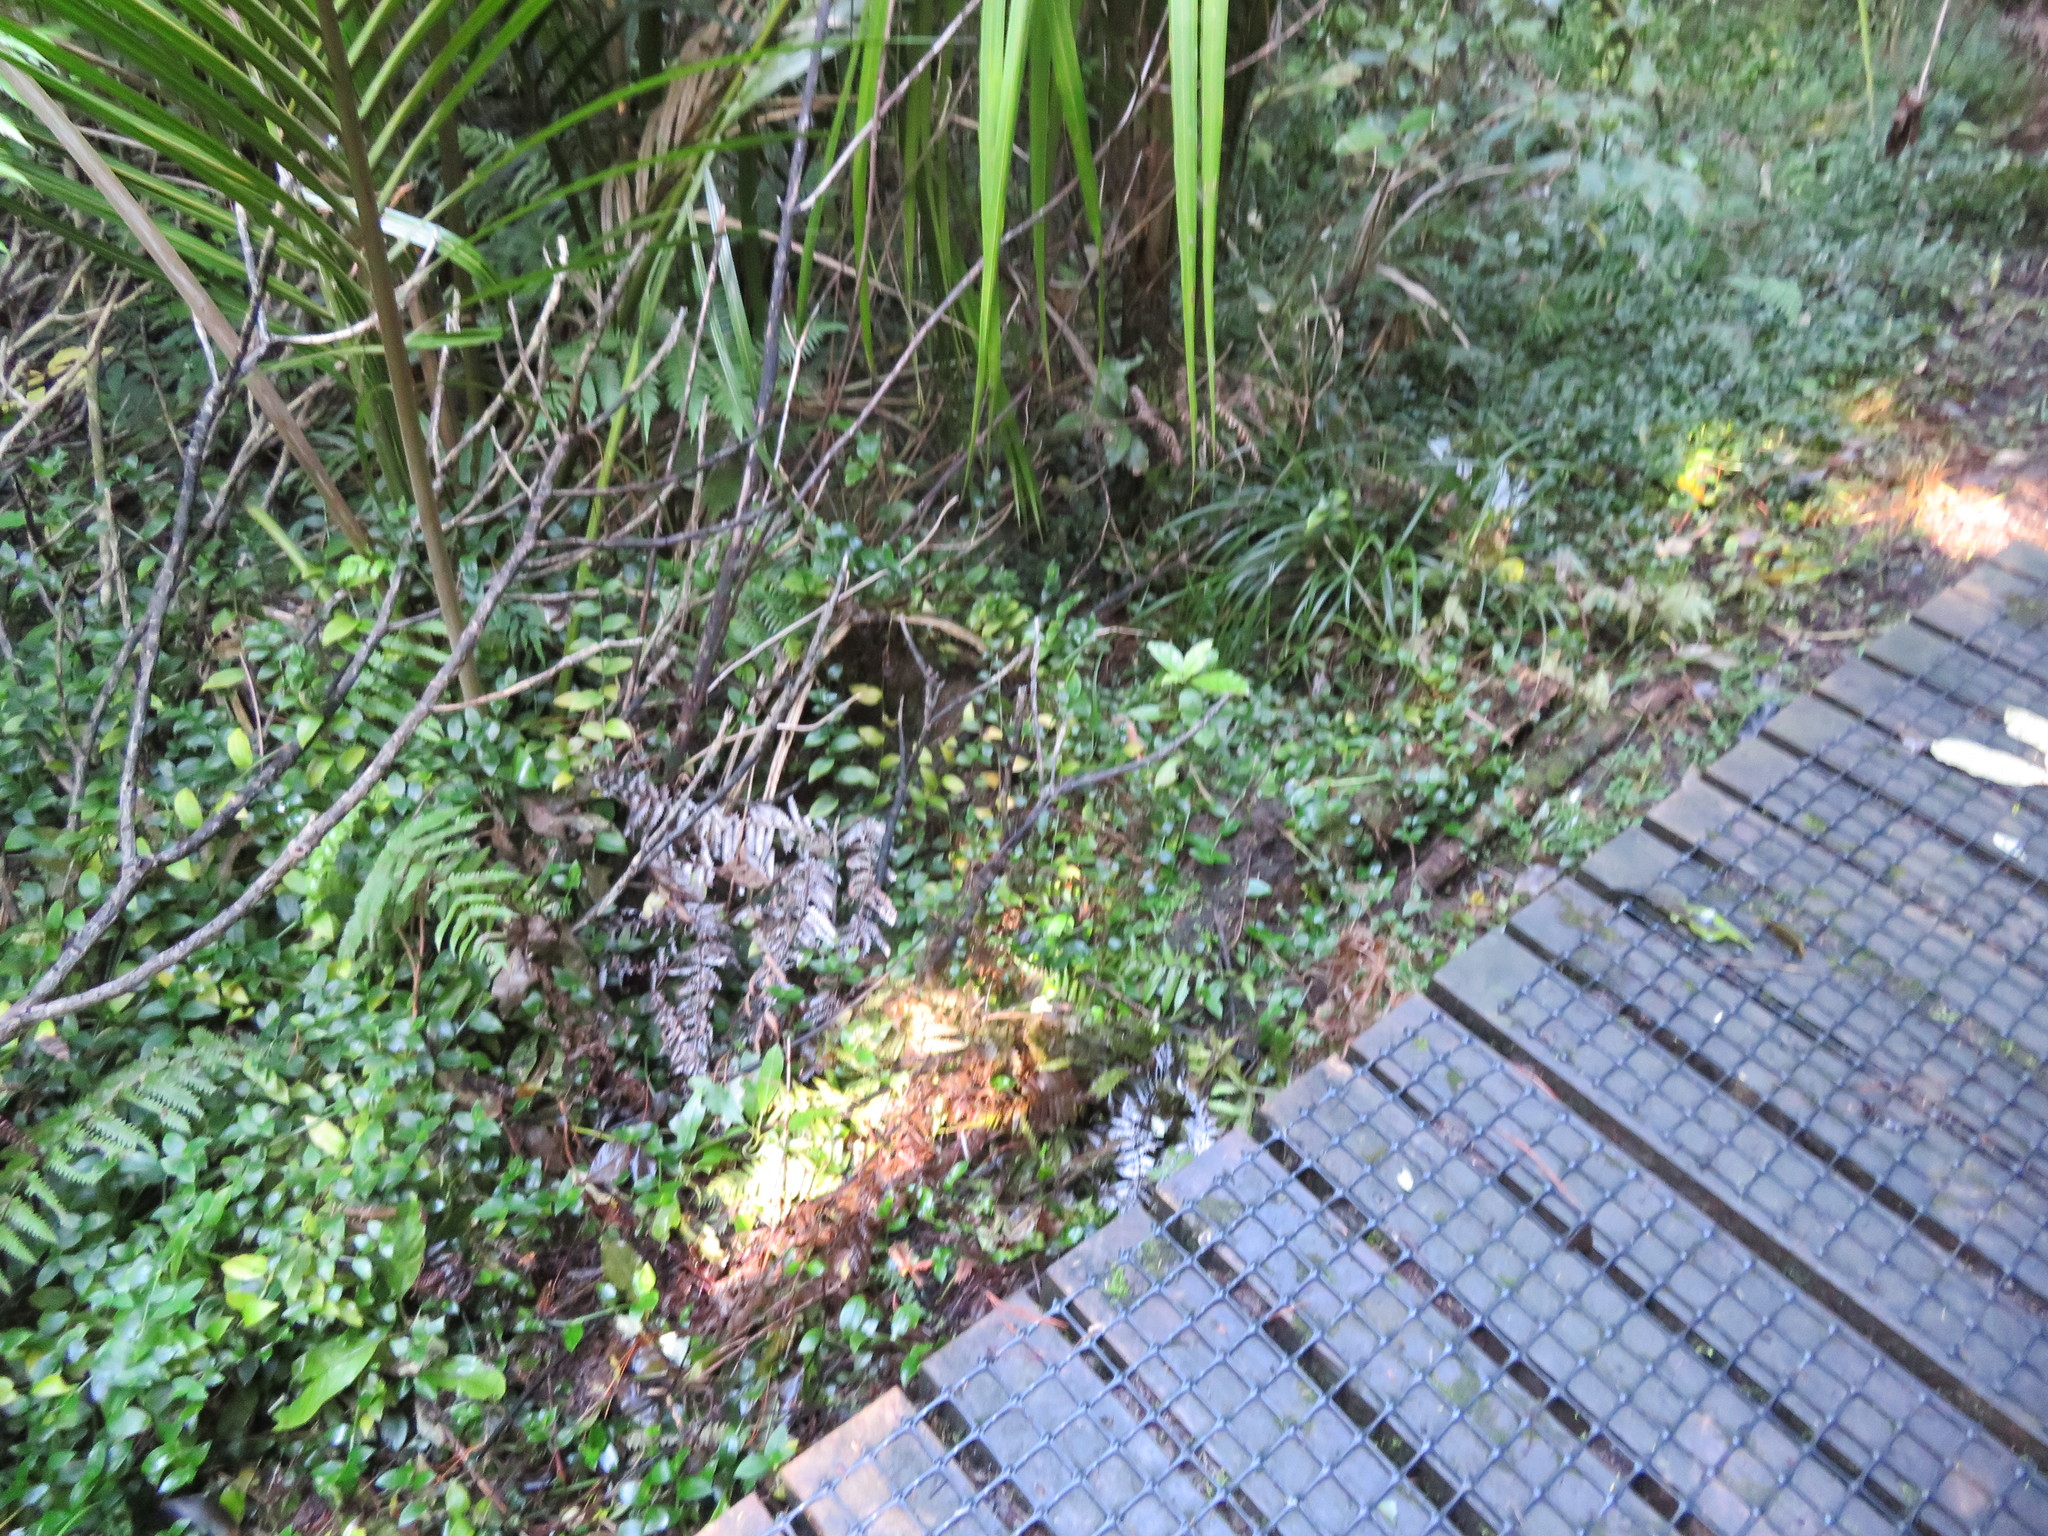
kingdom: Plantae
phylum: Tracheophyta
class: Liliopsida
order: Commelinales
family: Commelinaceae
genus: Tradescantia
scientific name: Tradescantia fluminensis
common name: Wandering-jew
